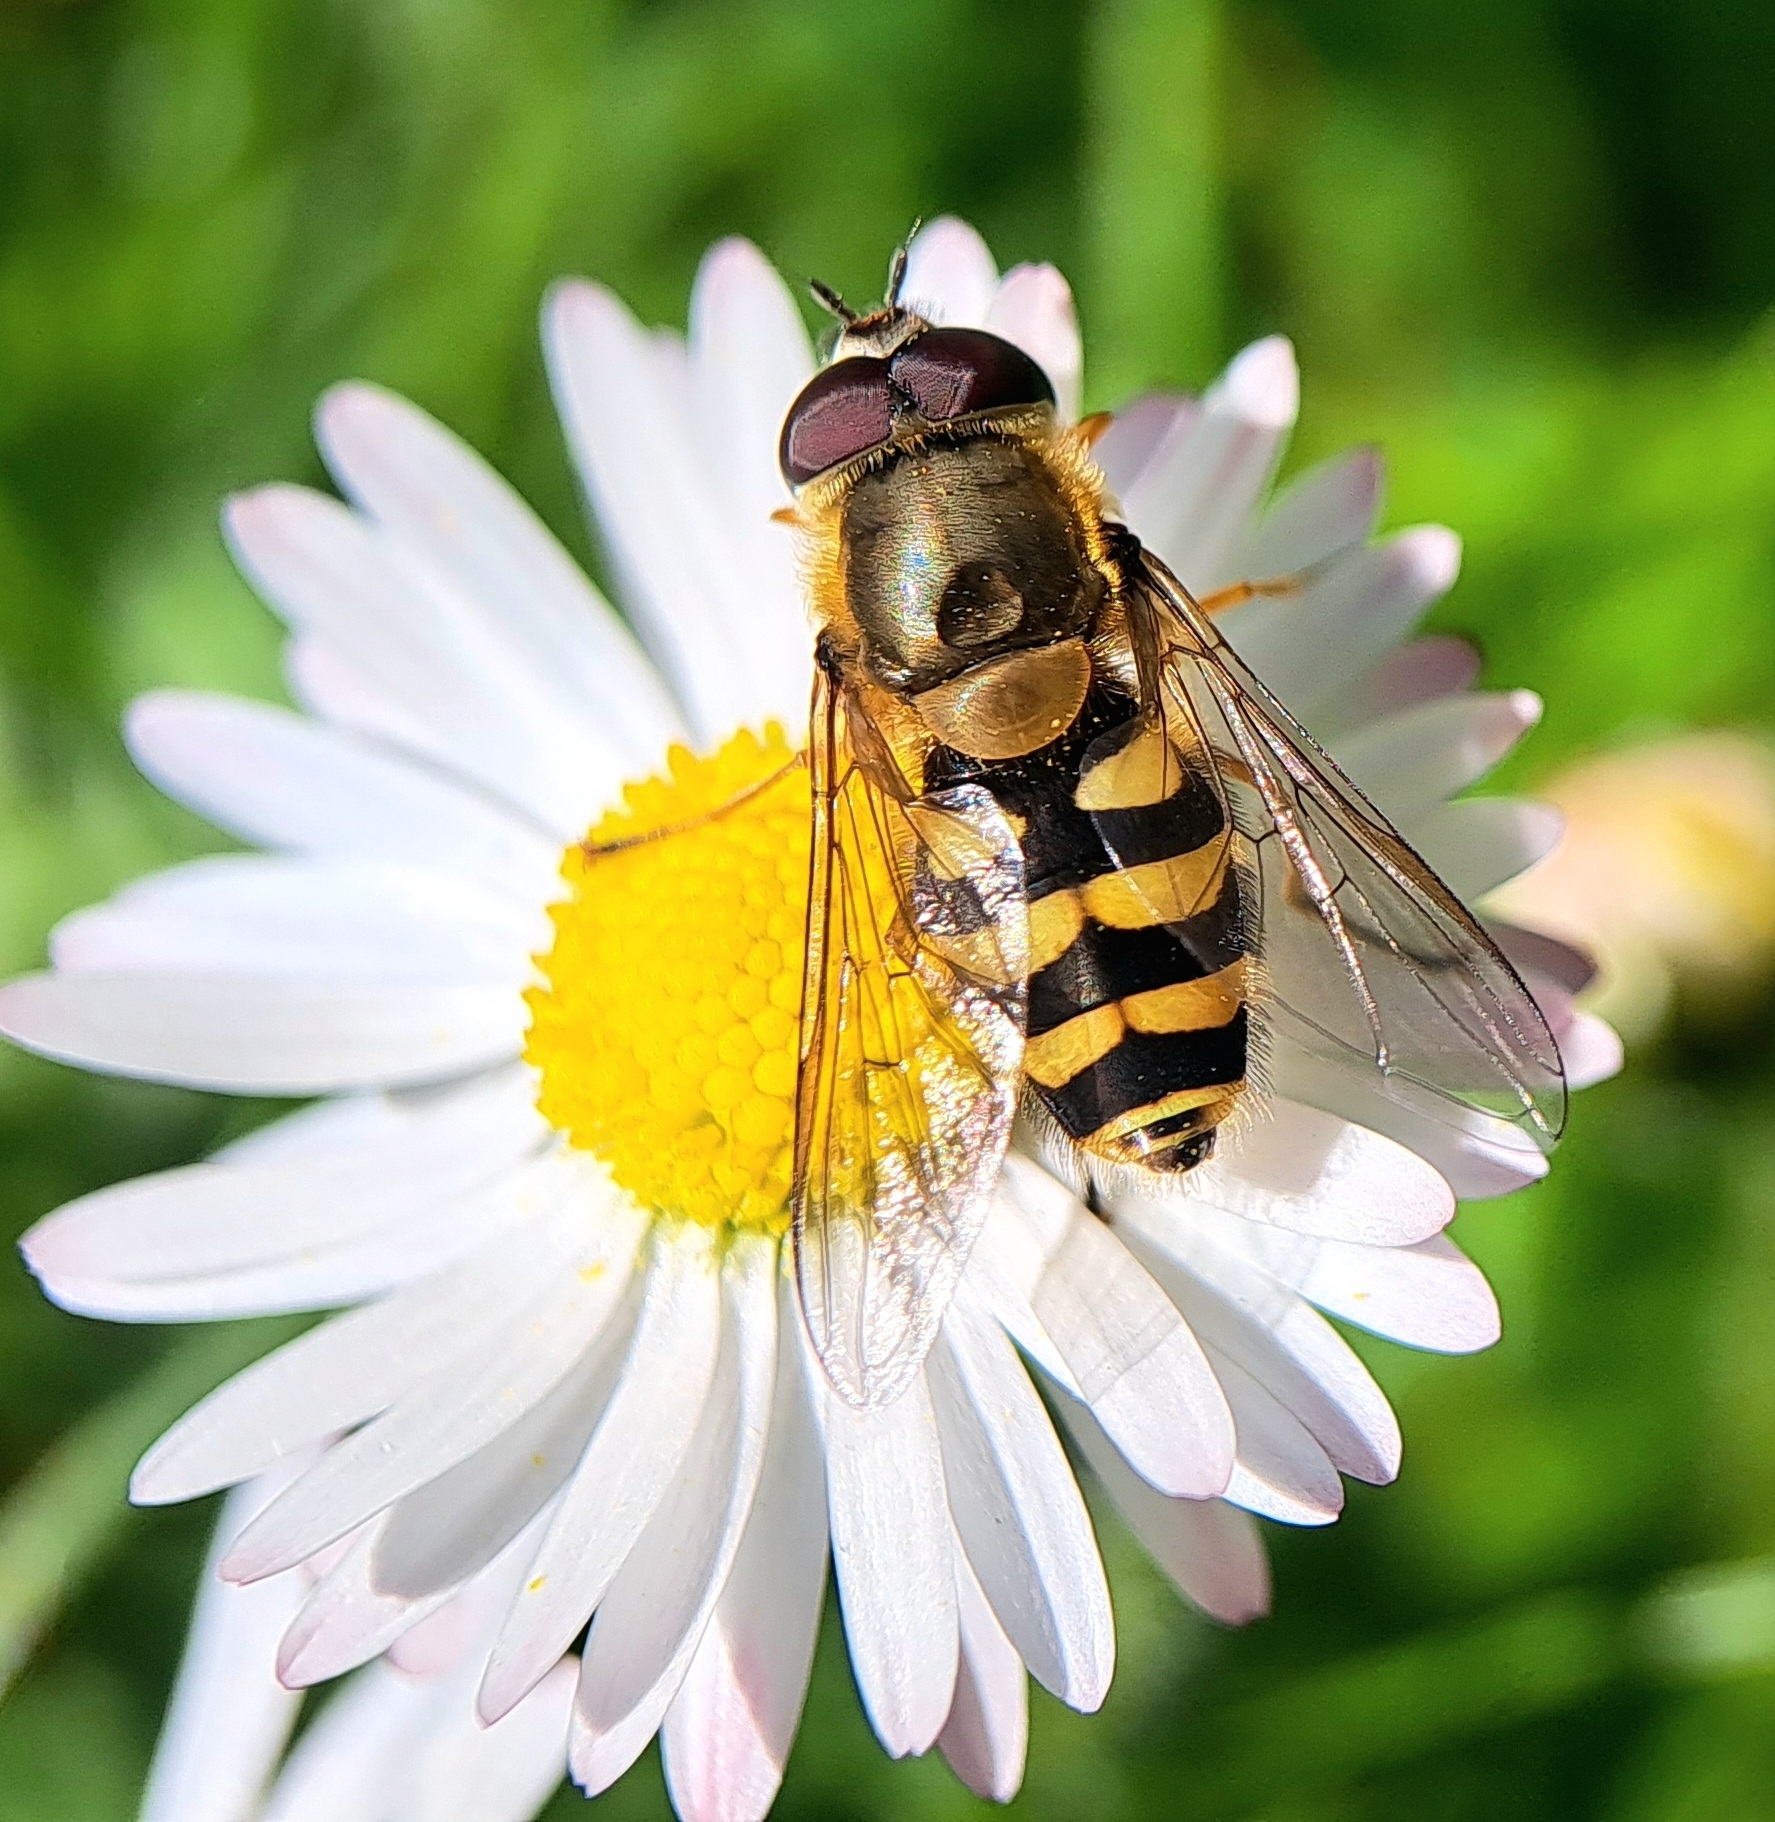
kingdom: Animalia
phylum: Arthropoda
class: Insecta
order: Diptera
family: Syrphidae
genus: Syrphus
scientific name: Syrphus
